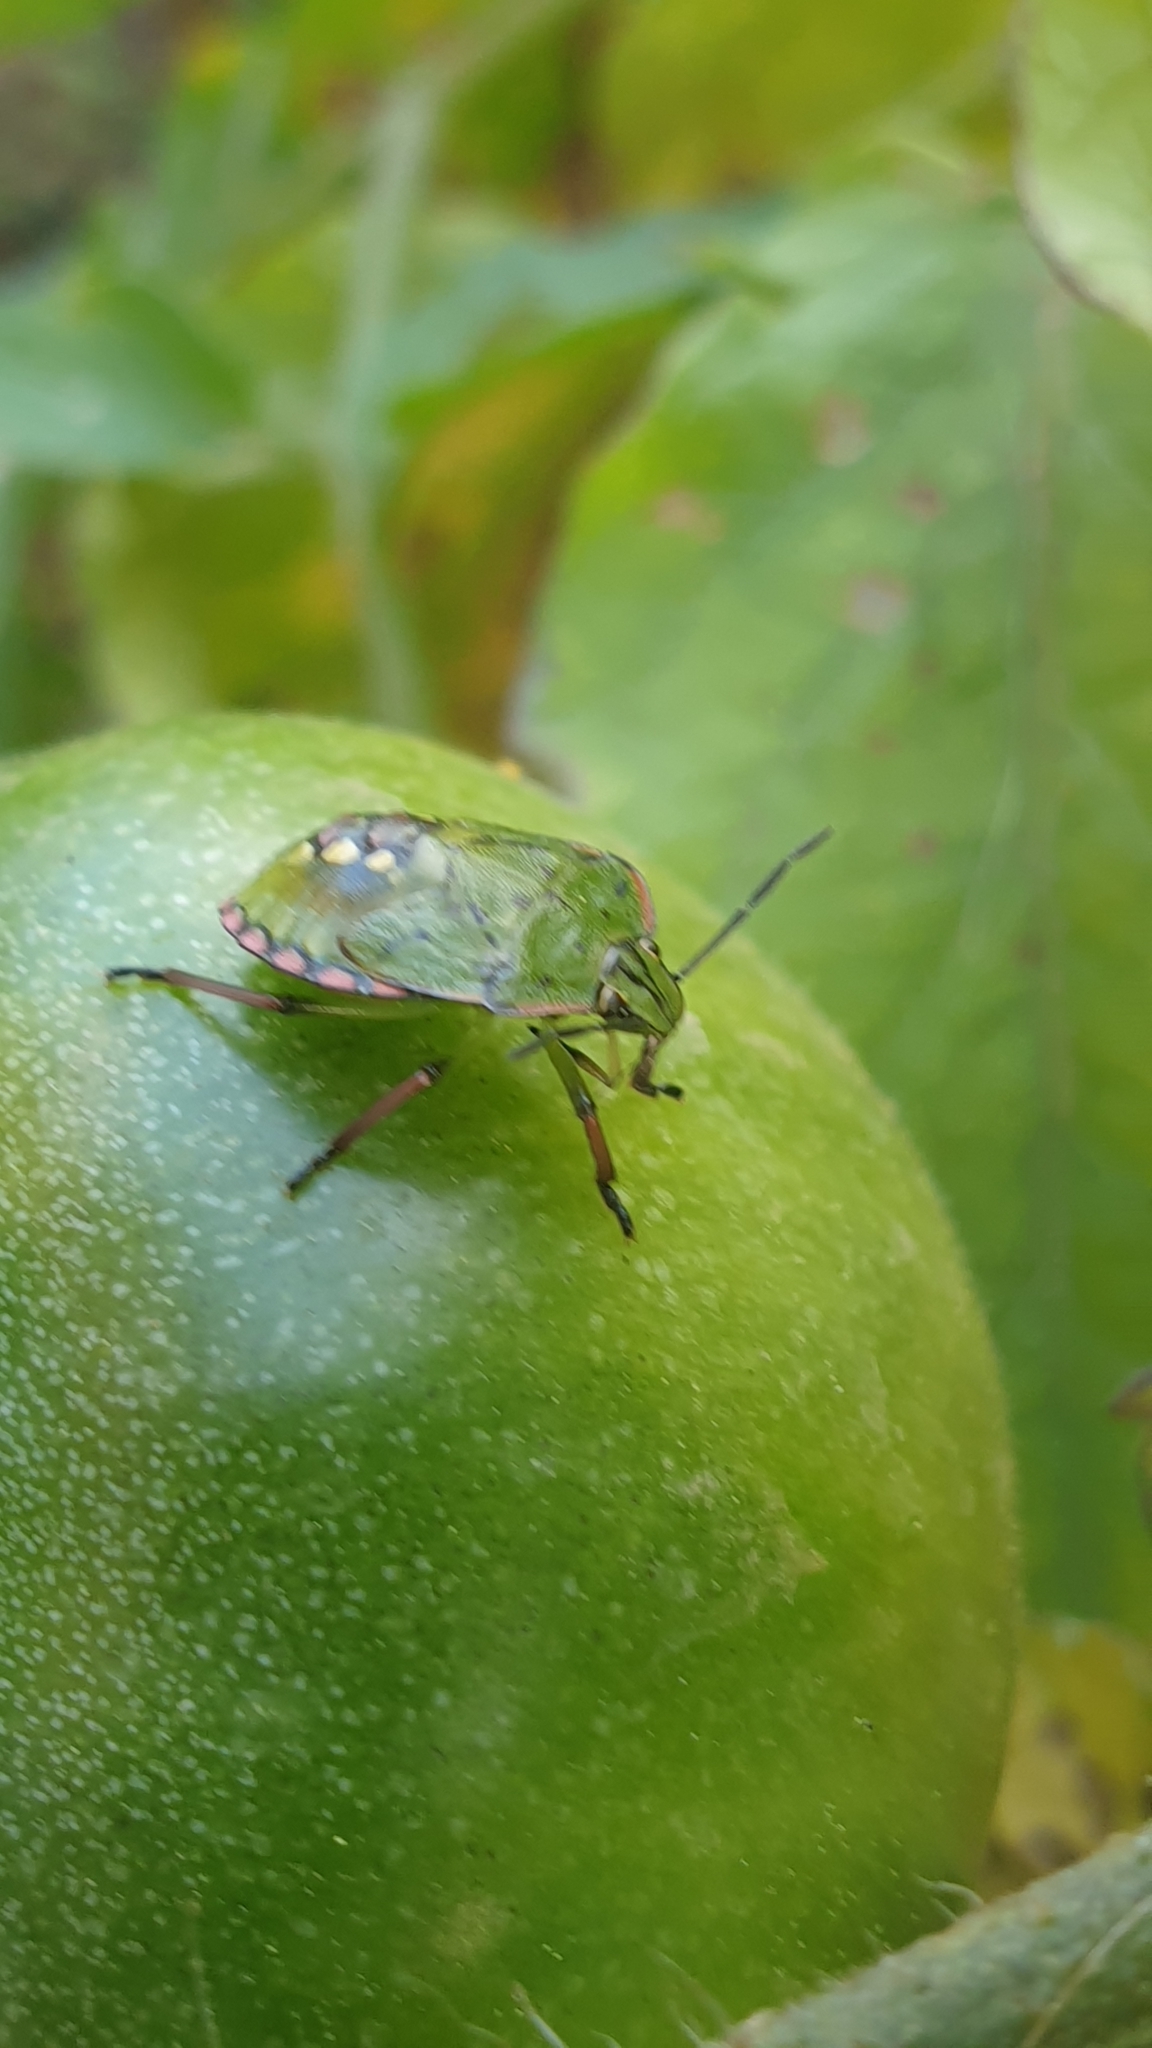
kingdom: Animalia
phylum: Arthropoda
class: Insecta
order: Hemiptera
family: Pentatomidae
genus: Nezara
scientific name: Nezara viridula
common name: Southern green stink bug
